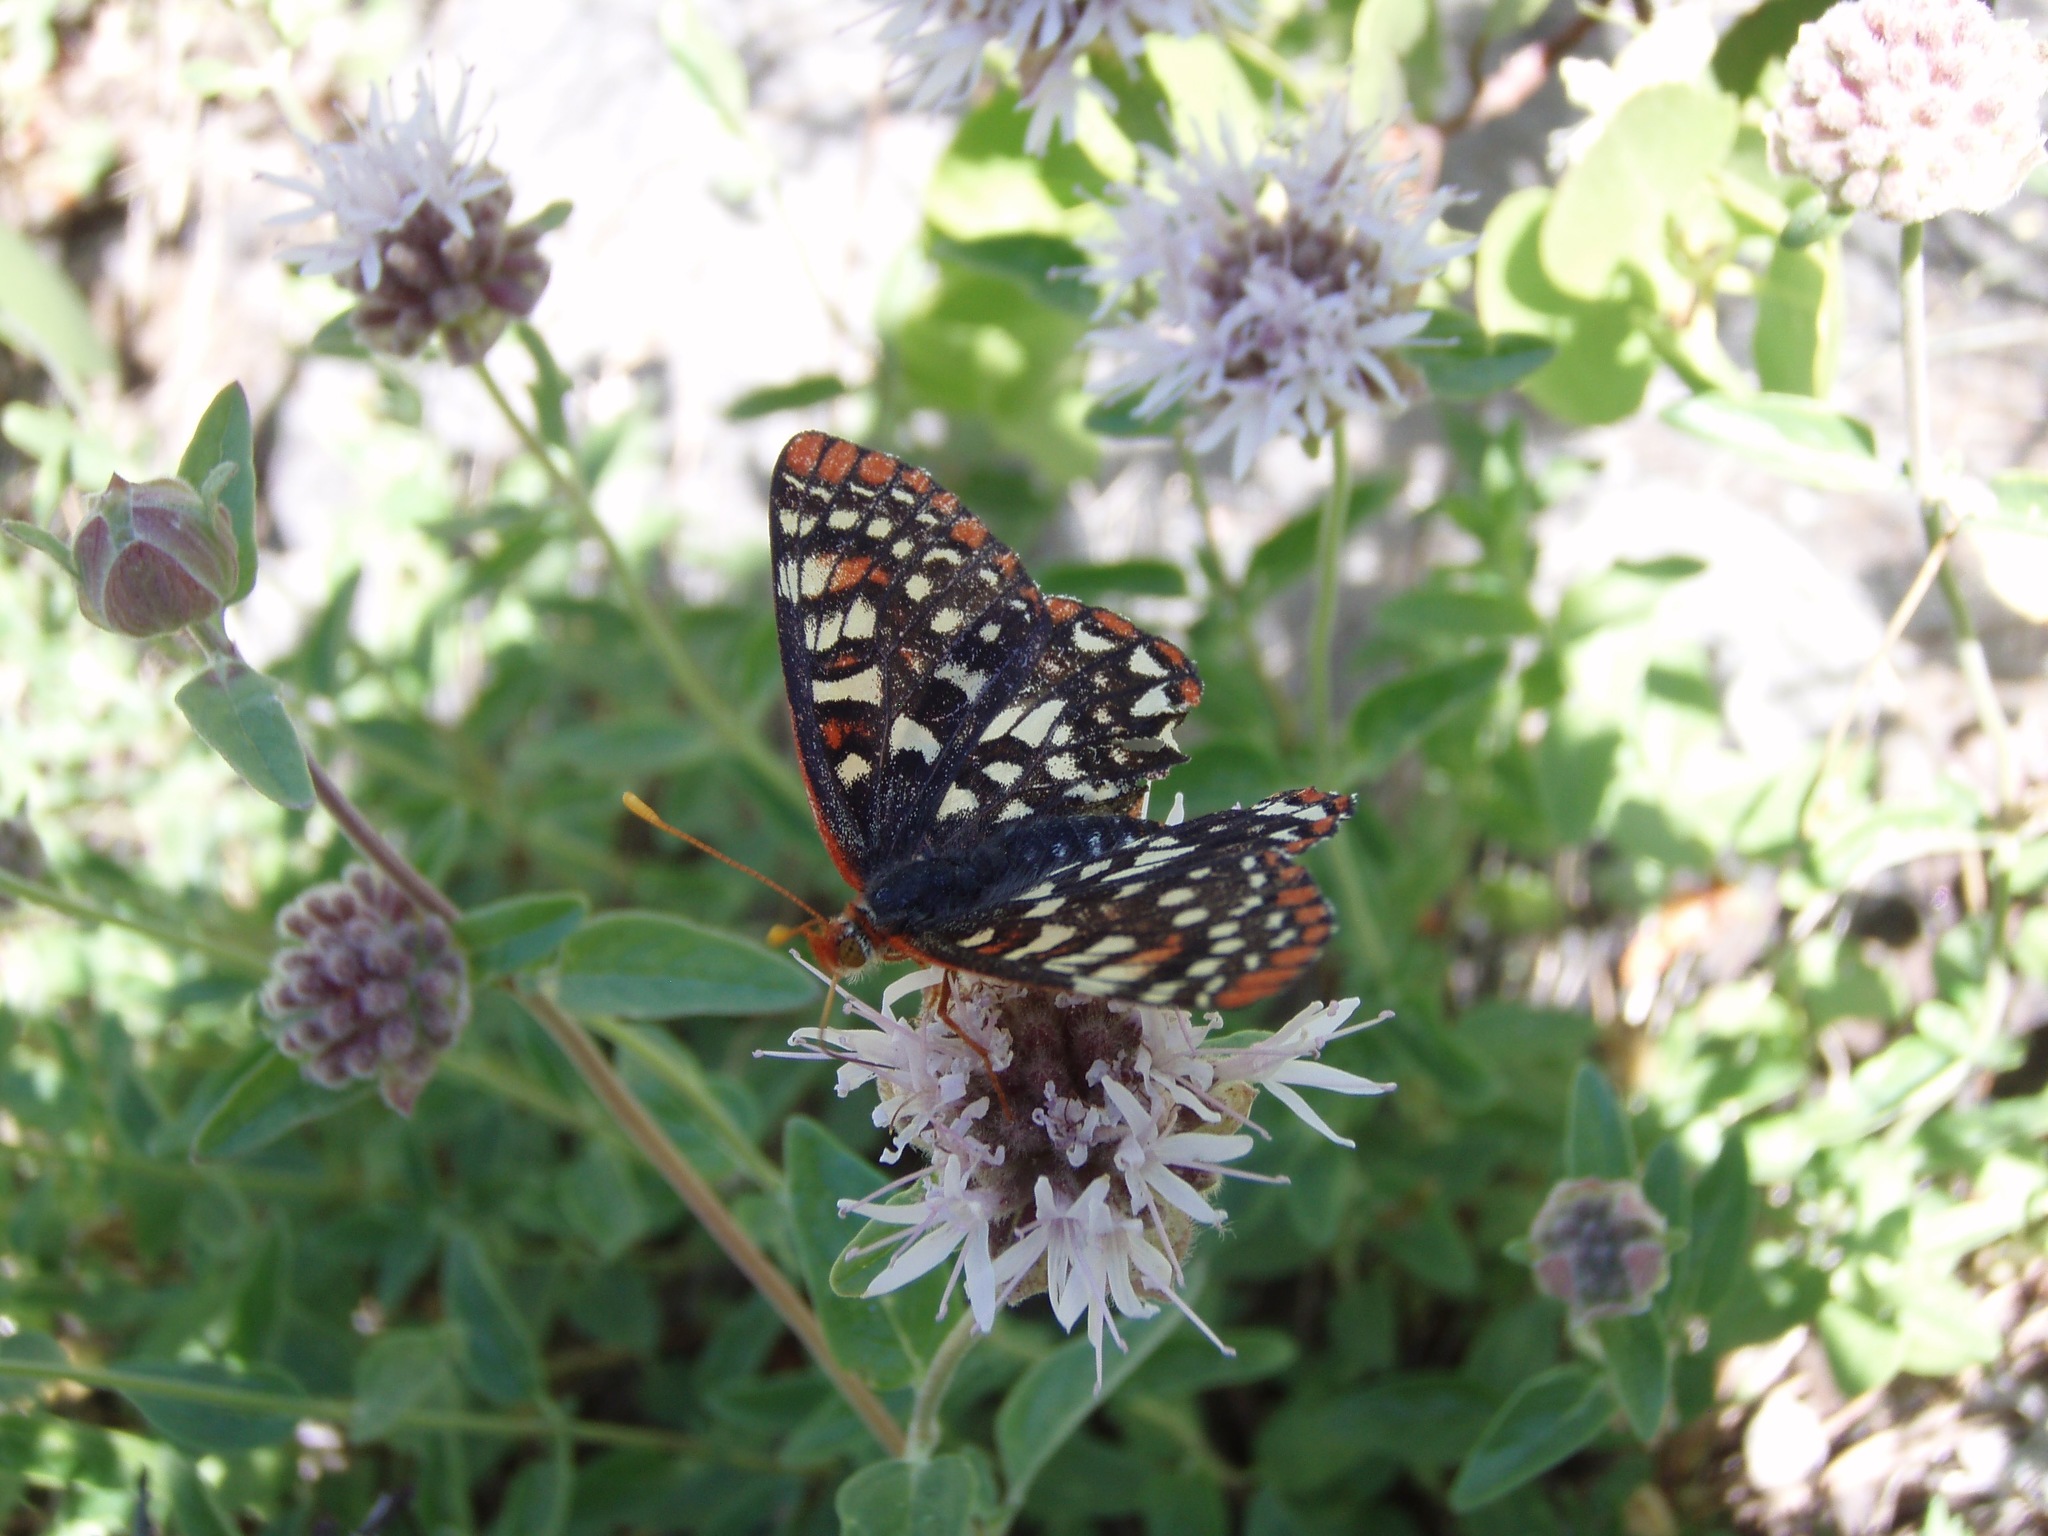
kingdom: Animalia
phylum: Arthropoda
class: Insecta
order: Lepidoptera
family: Nymphalidae
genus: Occidryas
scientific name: Occidryas chalcedona
